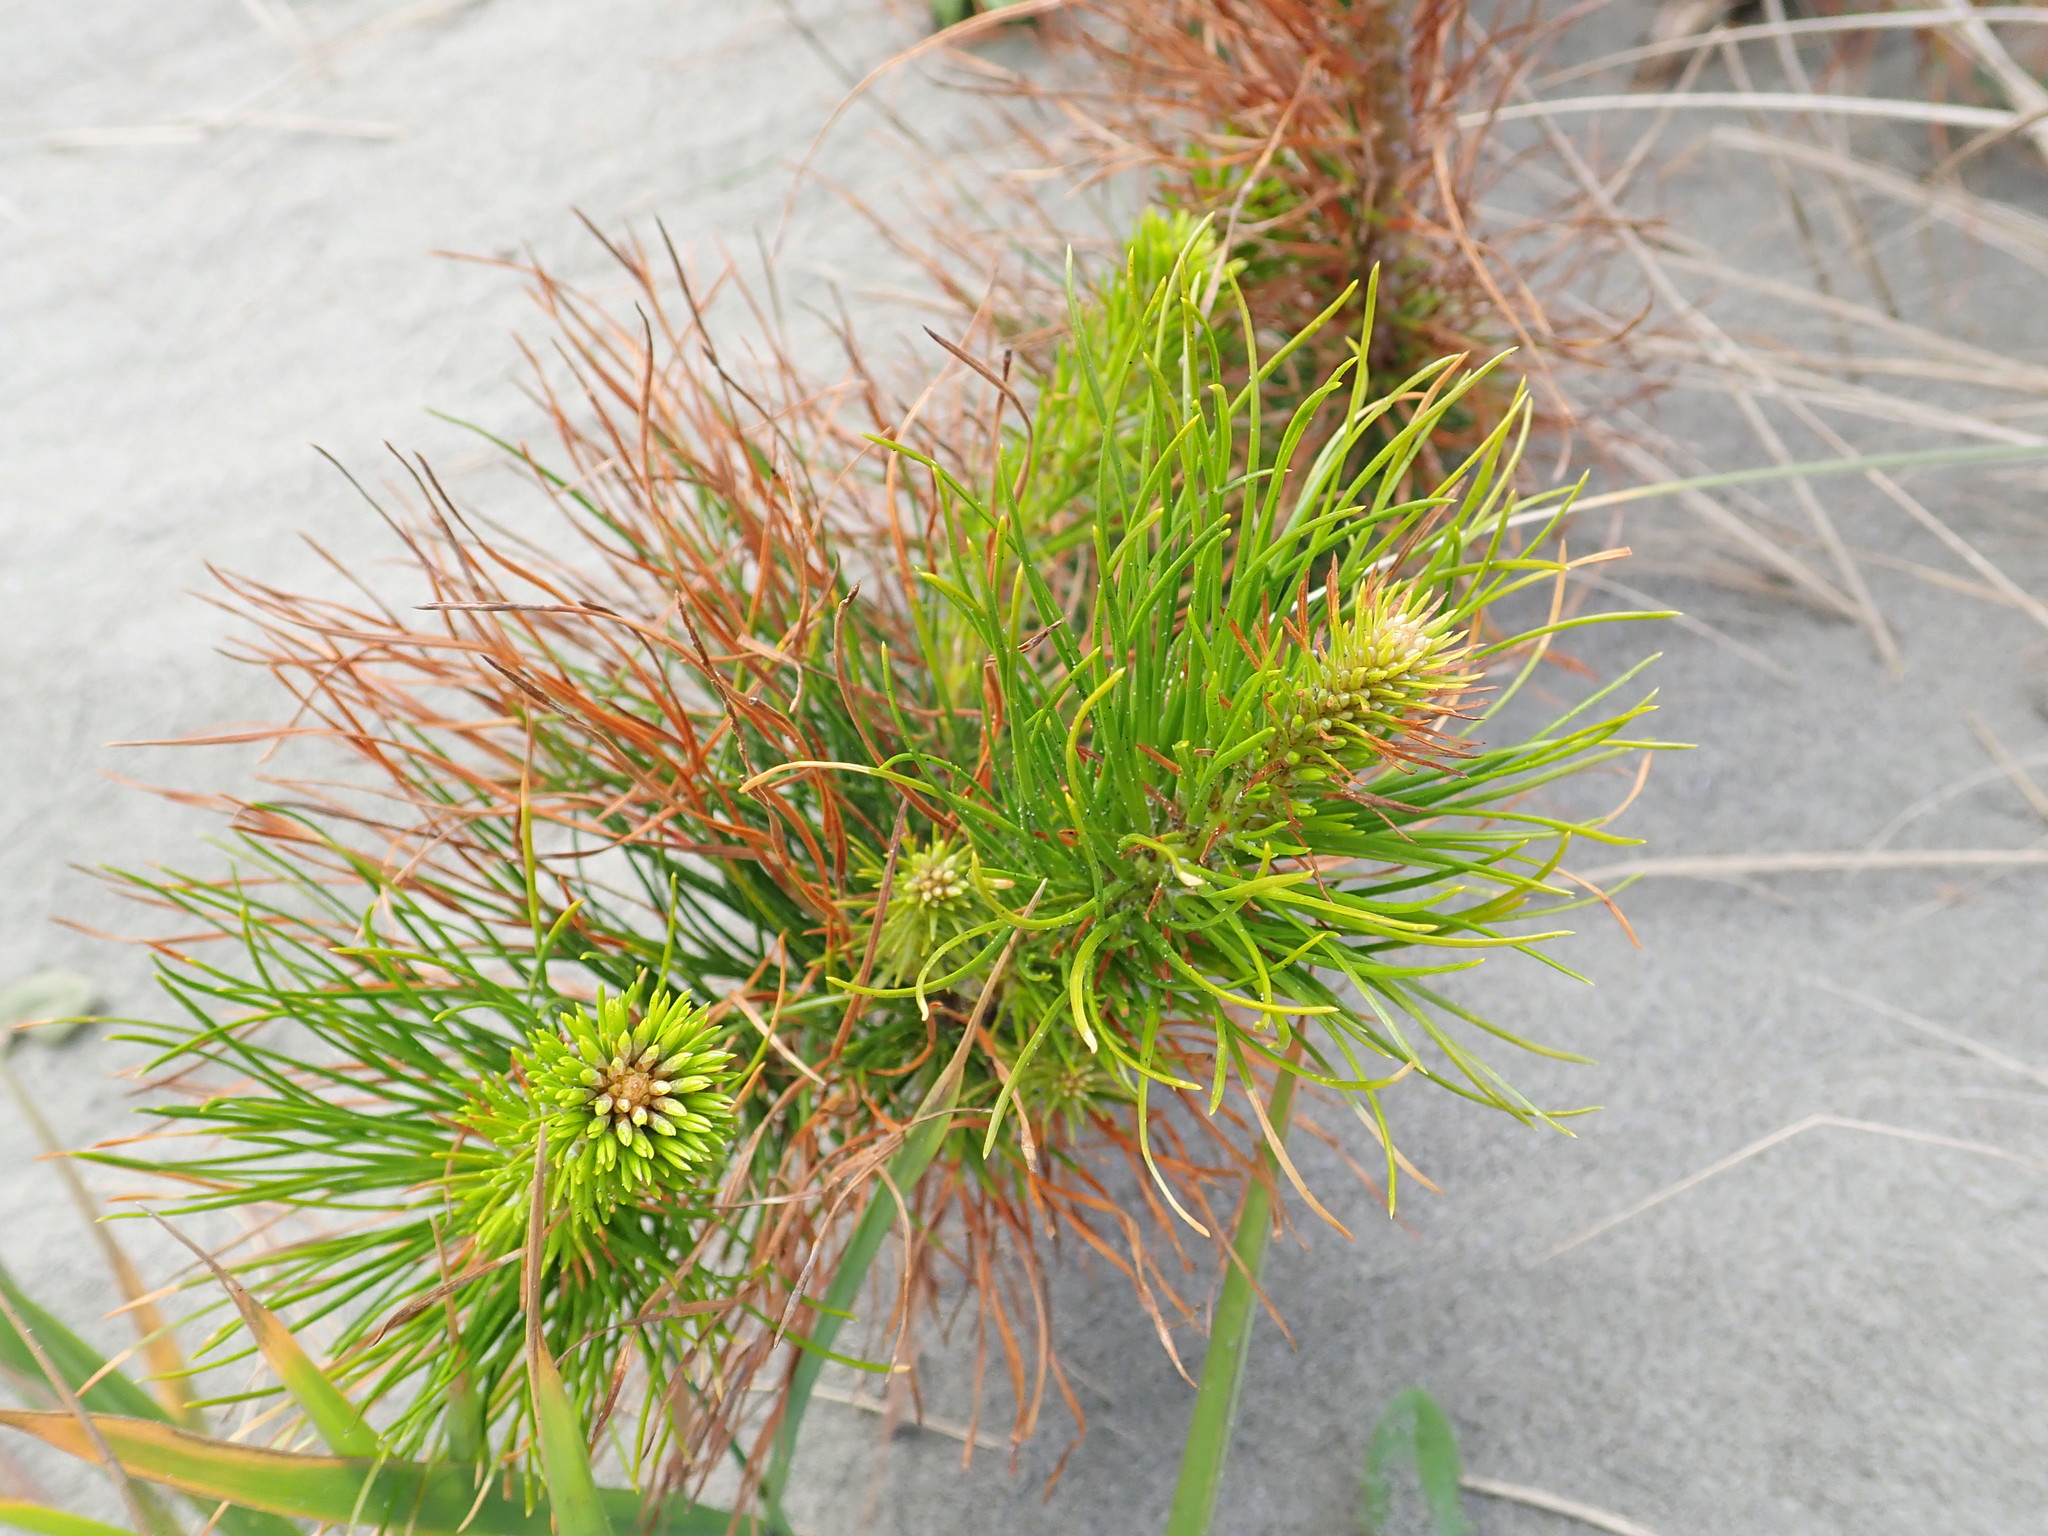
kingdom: Plantae
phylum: Tracheophyta
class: Pinopsida
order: Pinales
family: Pinaceae
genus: Pinus
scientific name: Pinus radiata
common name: Monterey pine
